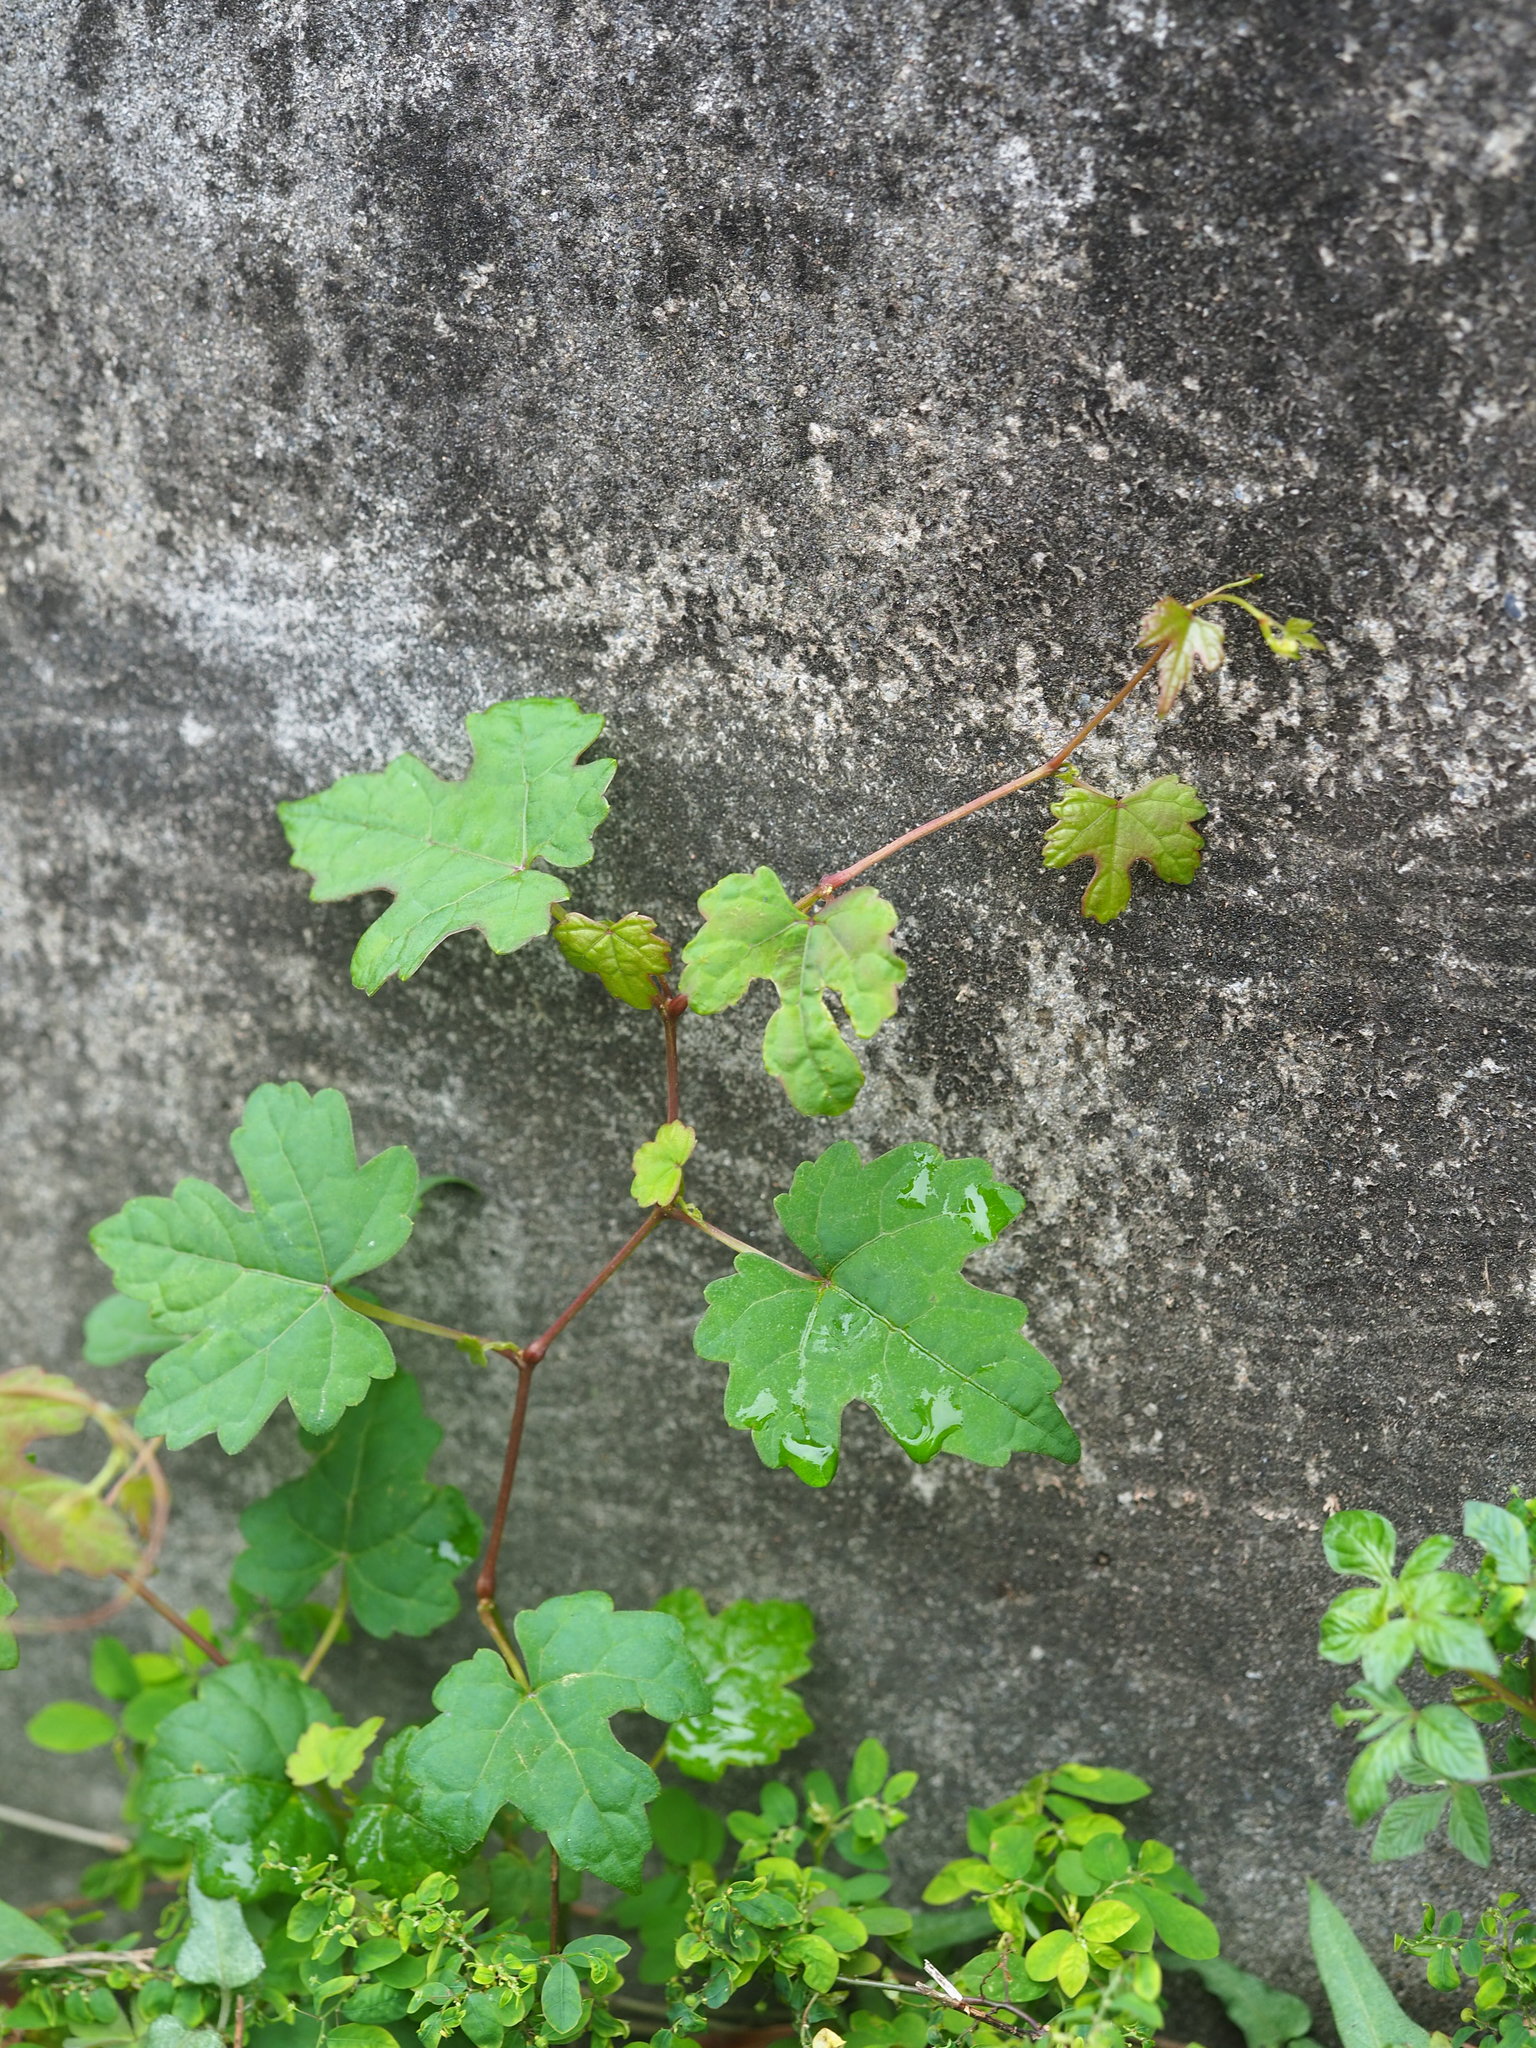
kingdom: Plantae
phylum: Tracheophyta
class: Magnoliopsida
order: Vitales
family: Vitaceae
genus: Ampelopsis
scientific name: Ampelopsis glandulosa
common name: Amur peppervine
